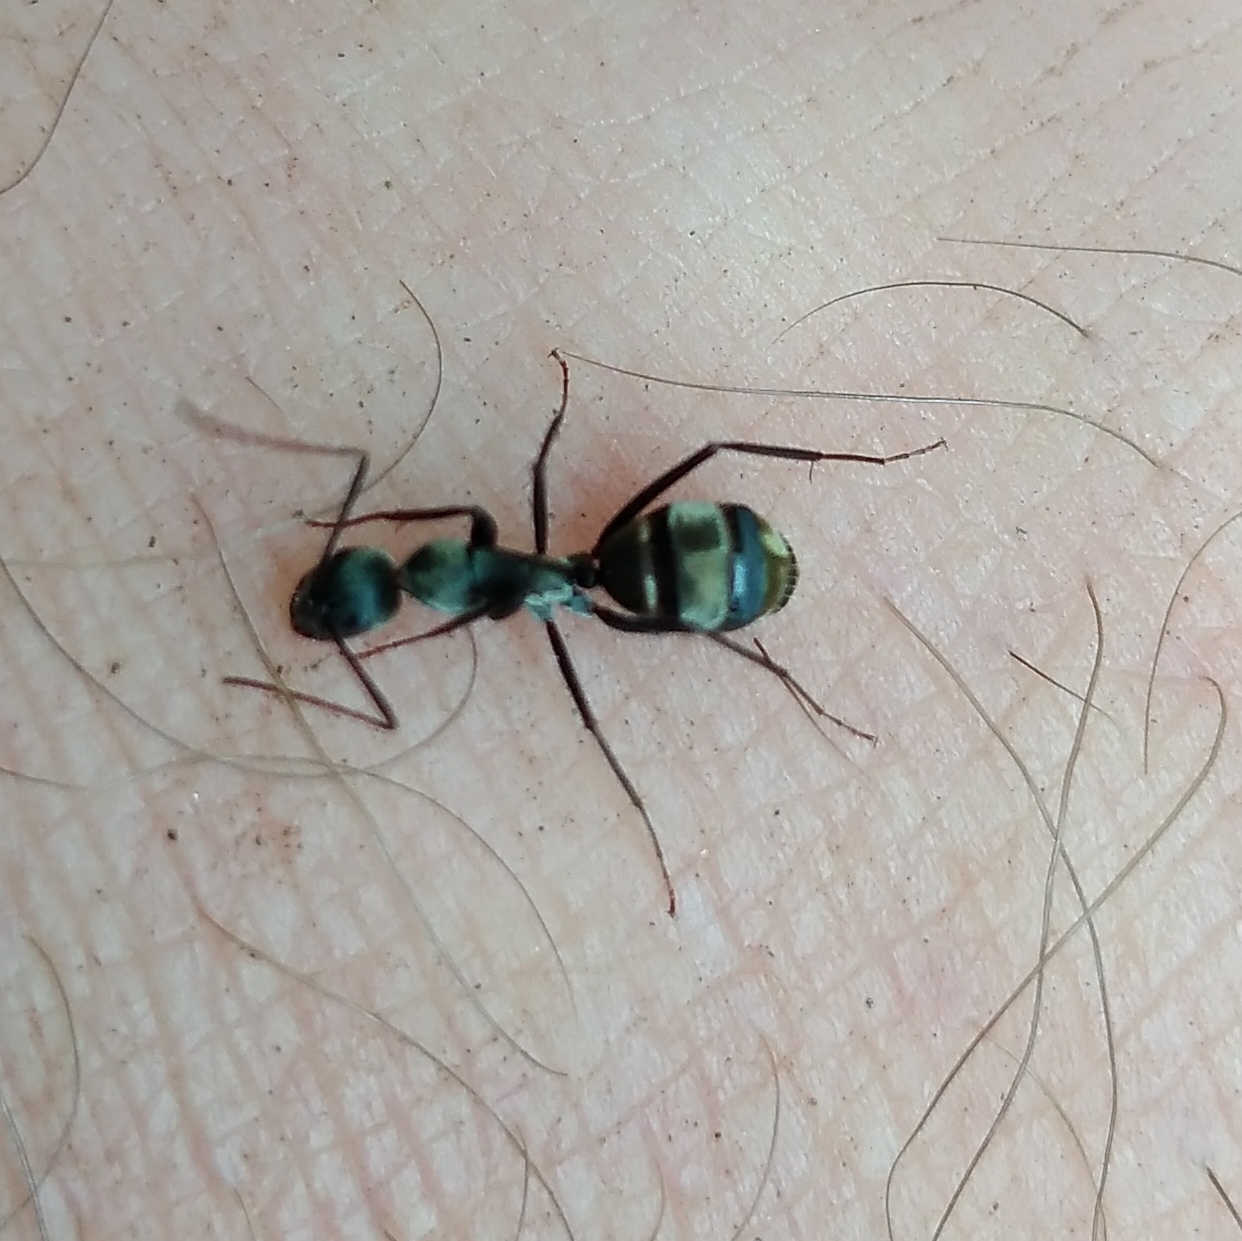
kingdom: Animalia
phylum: Arthropoda
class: Insecta
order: Hymenoptera
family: Formicidae
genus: Camponotus
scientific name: Camponotus cinctellus
